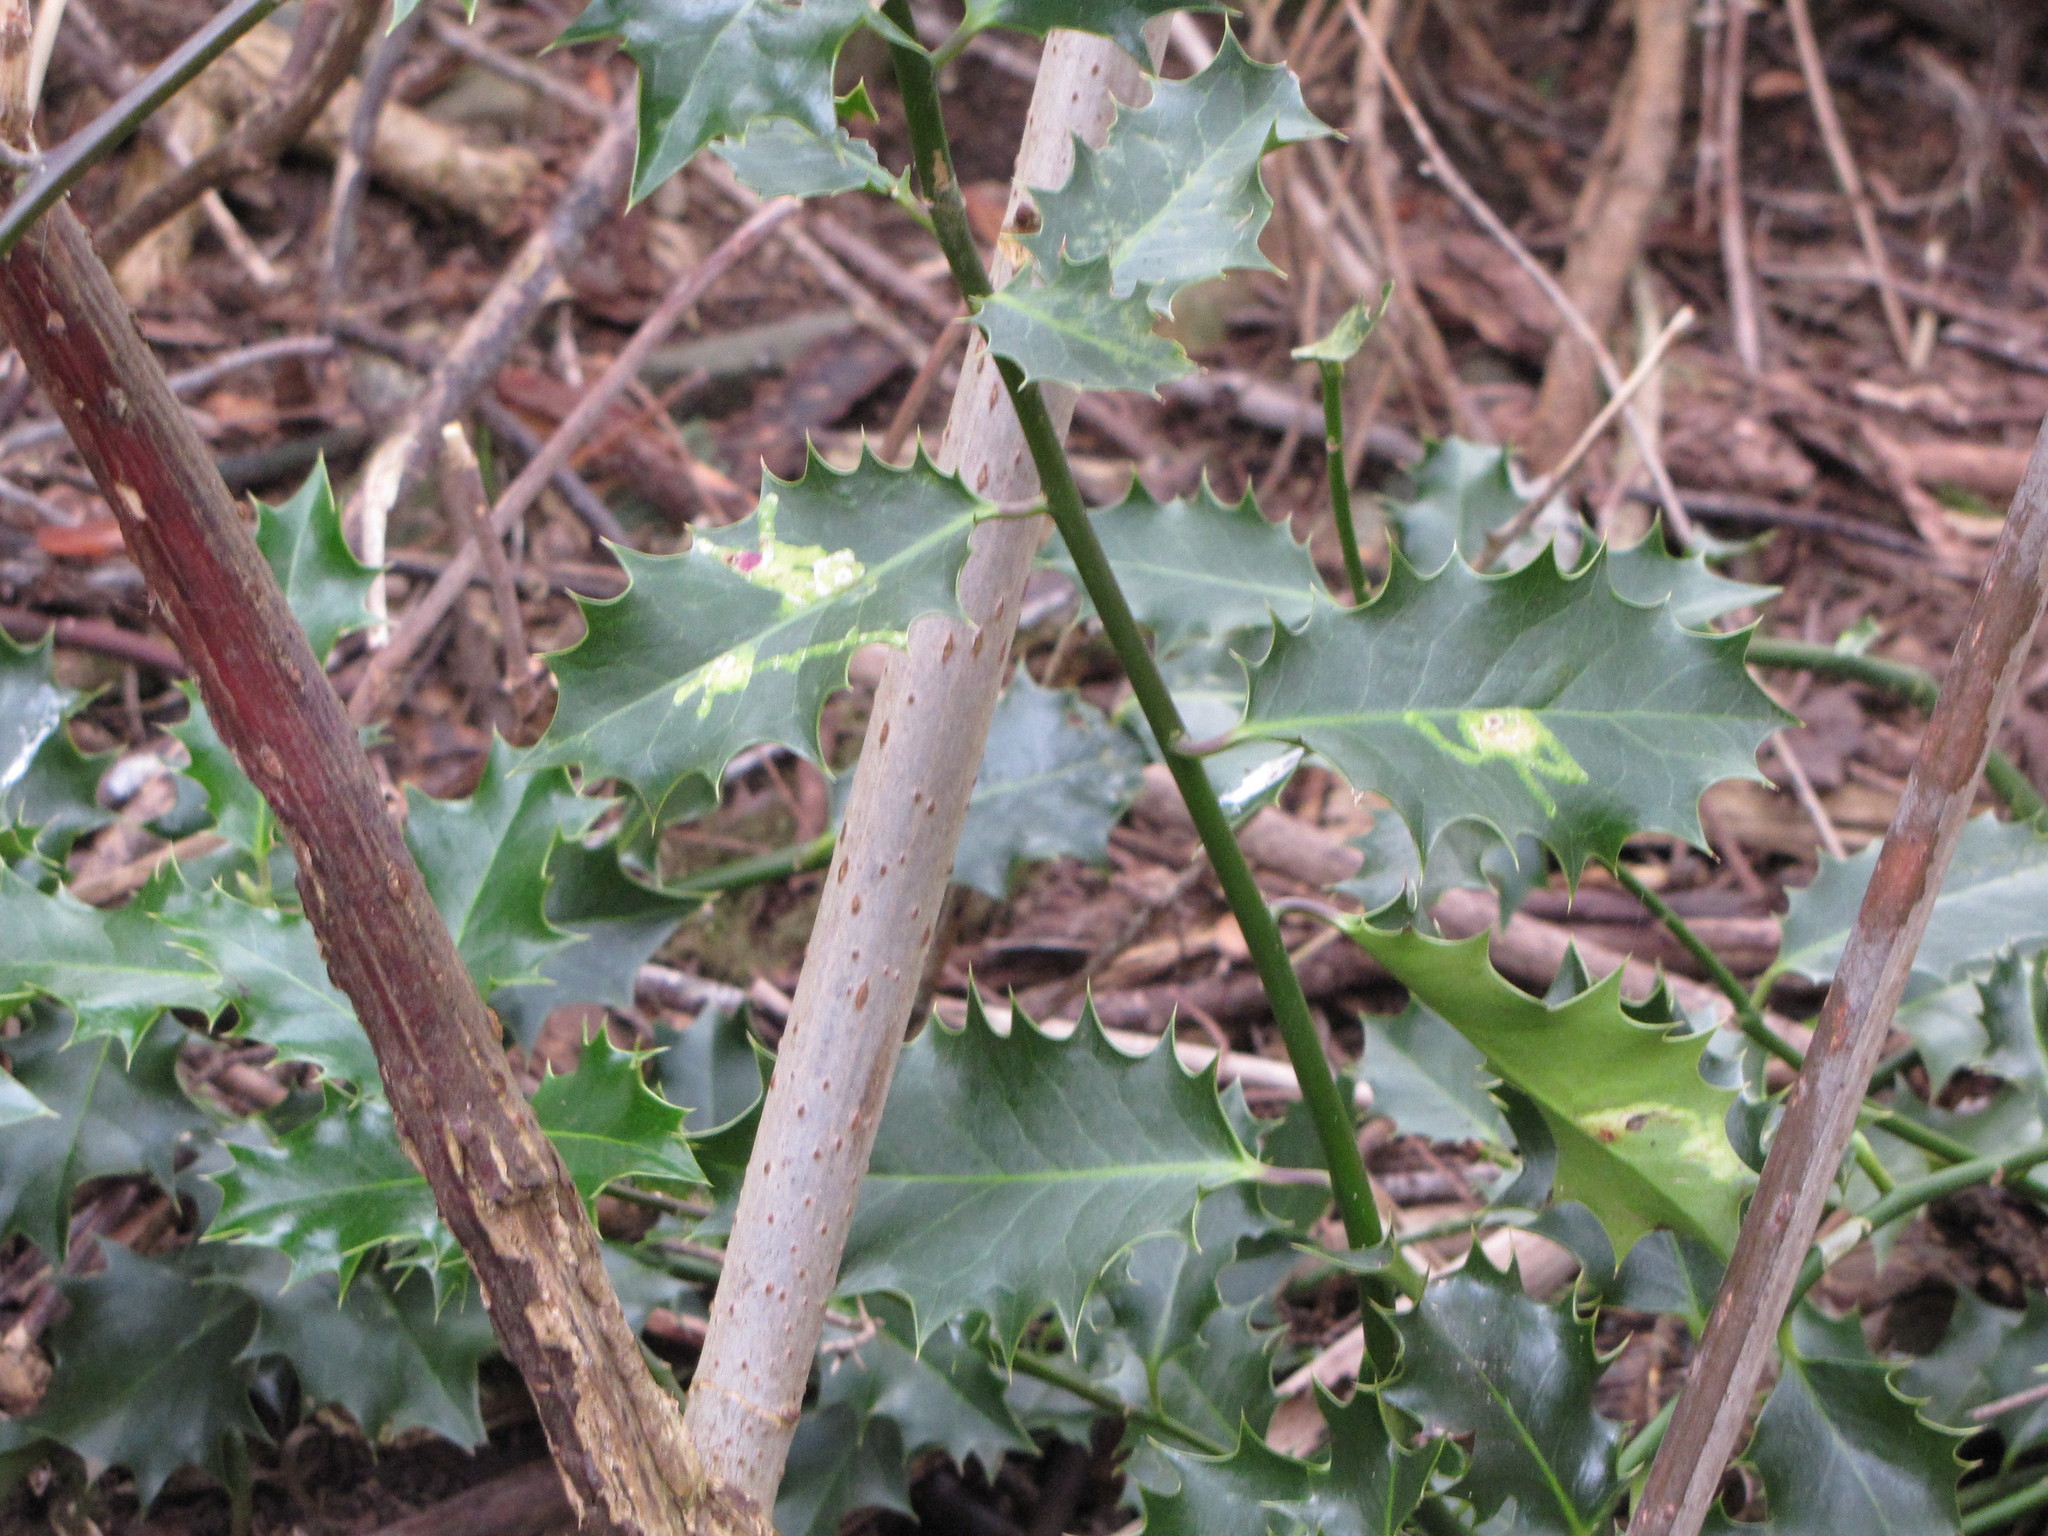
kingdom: Animalia
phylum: Arthropoda
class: Insecta
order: Diptera
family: Agromyzidae
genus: Phytomyza
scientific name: Phytomyza ilicis
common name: Holly leafminer
